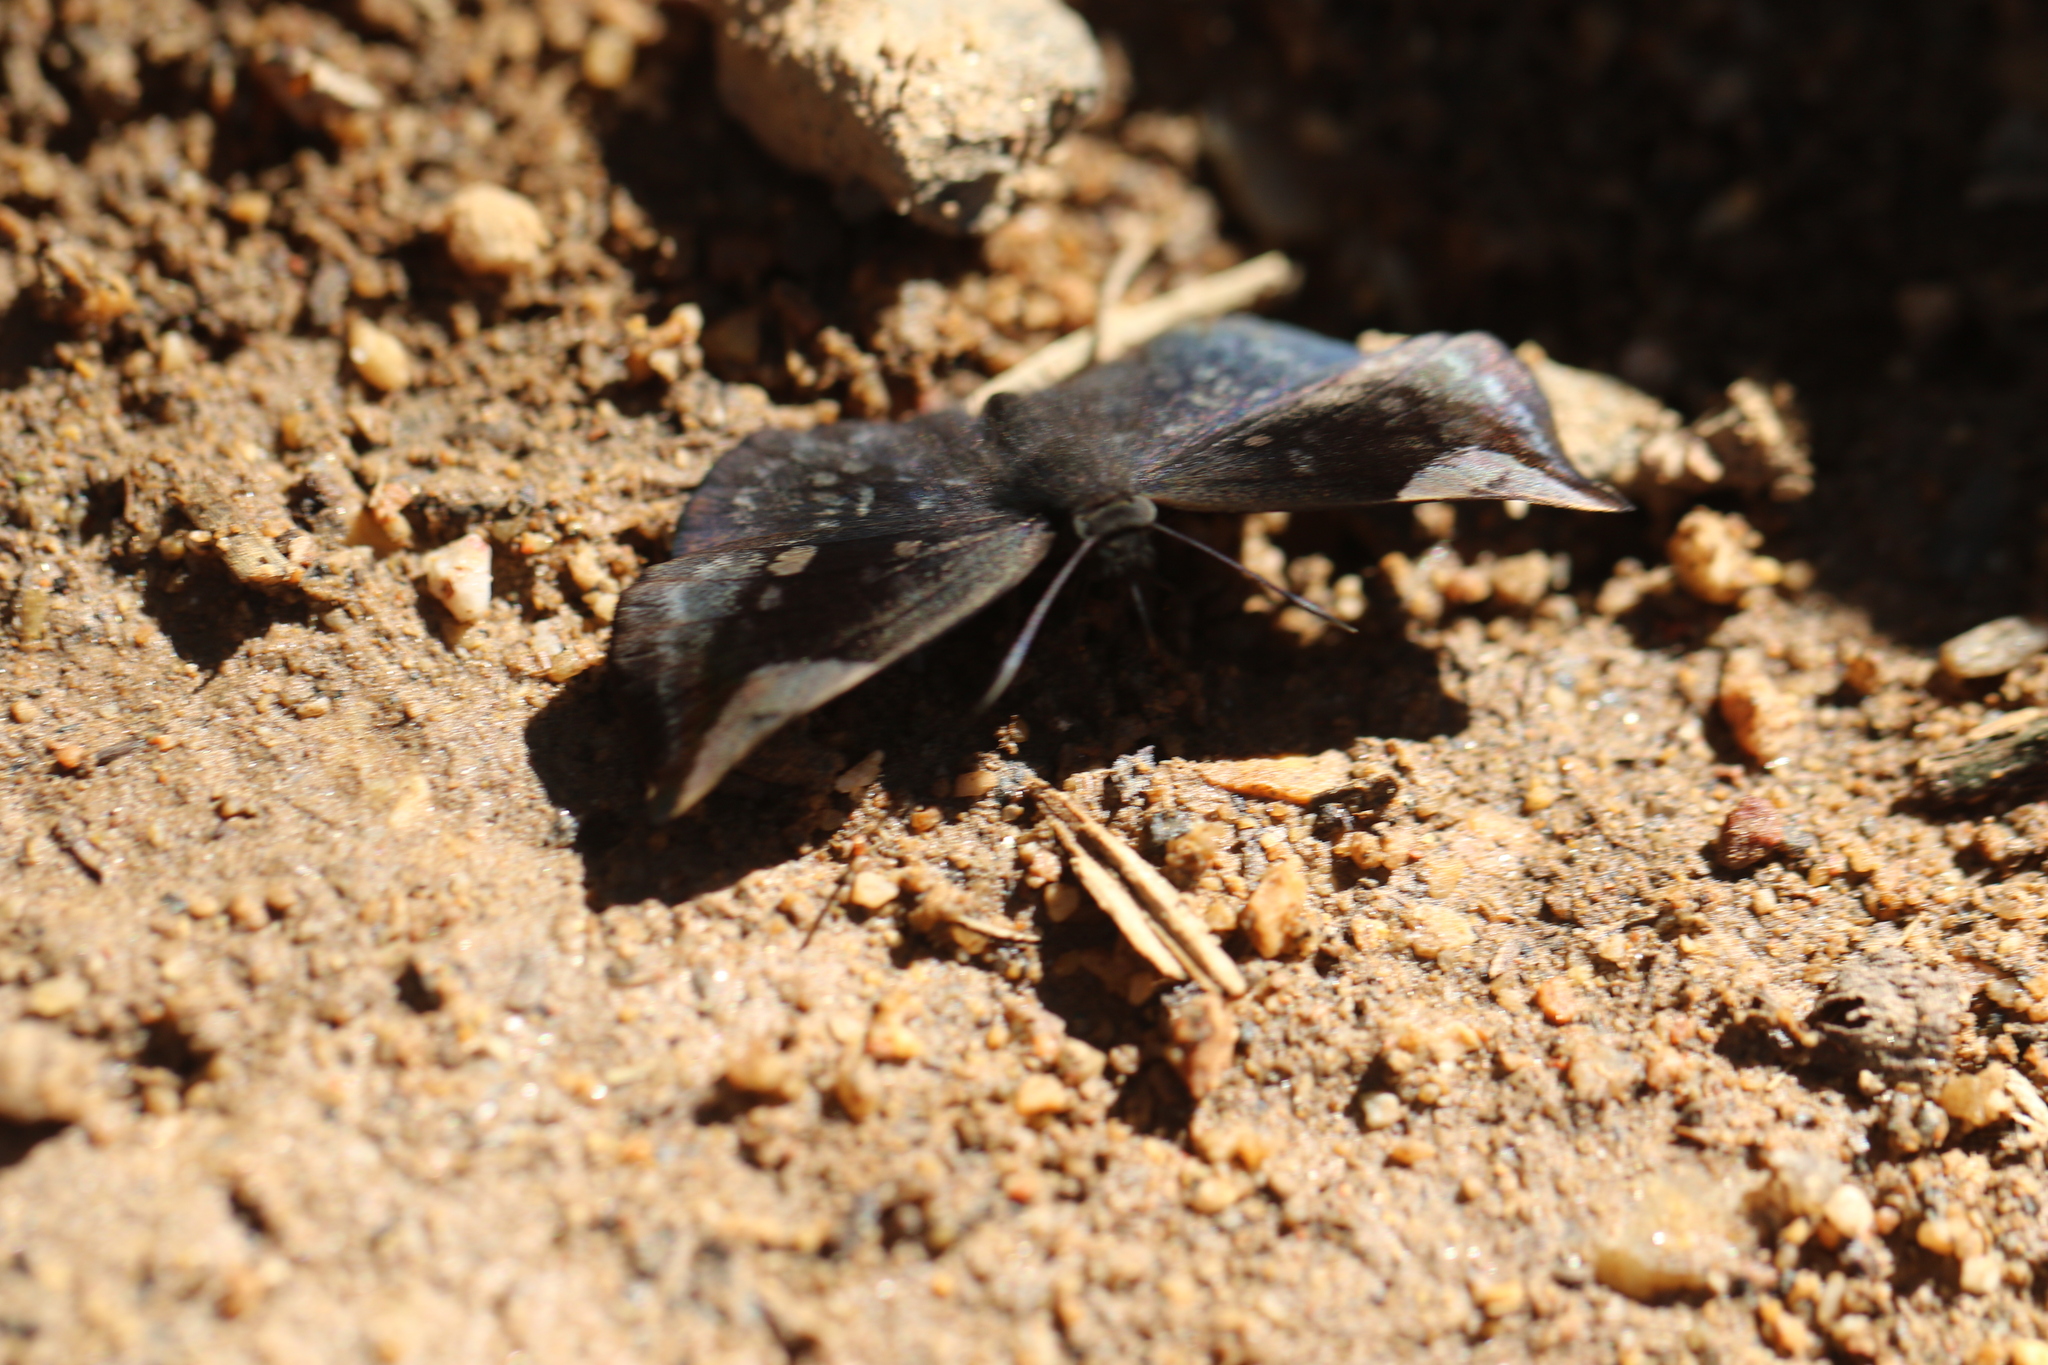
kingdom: Animalia
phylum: Arthropoda
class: Insecta
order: Lepidoptera
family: Hesperiidae
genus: Achlyodes
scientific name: Achlyodes thraso
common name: Sickle-winged skipper
